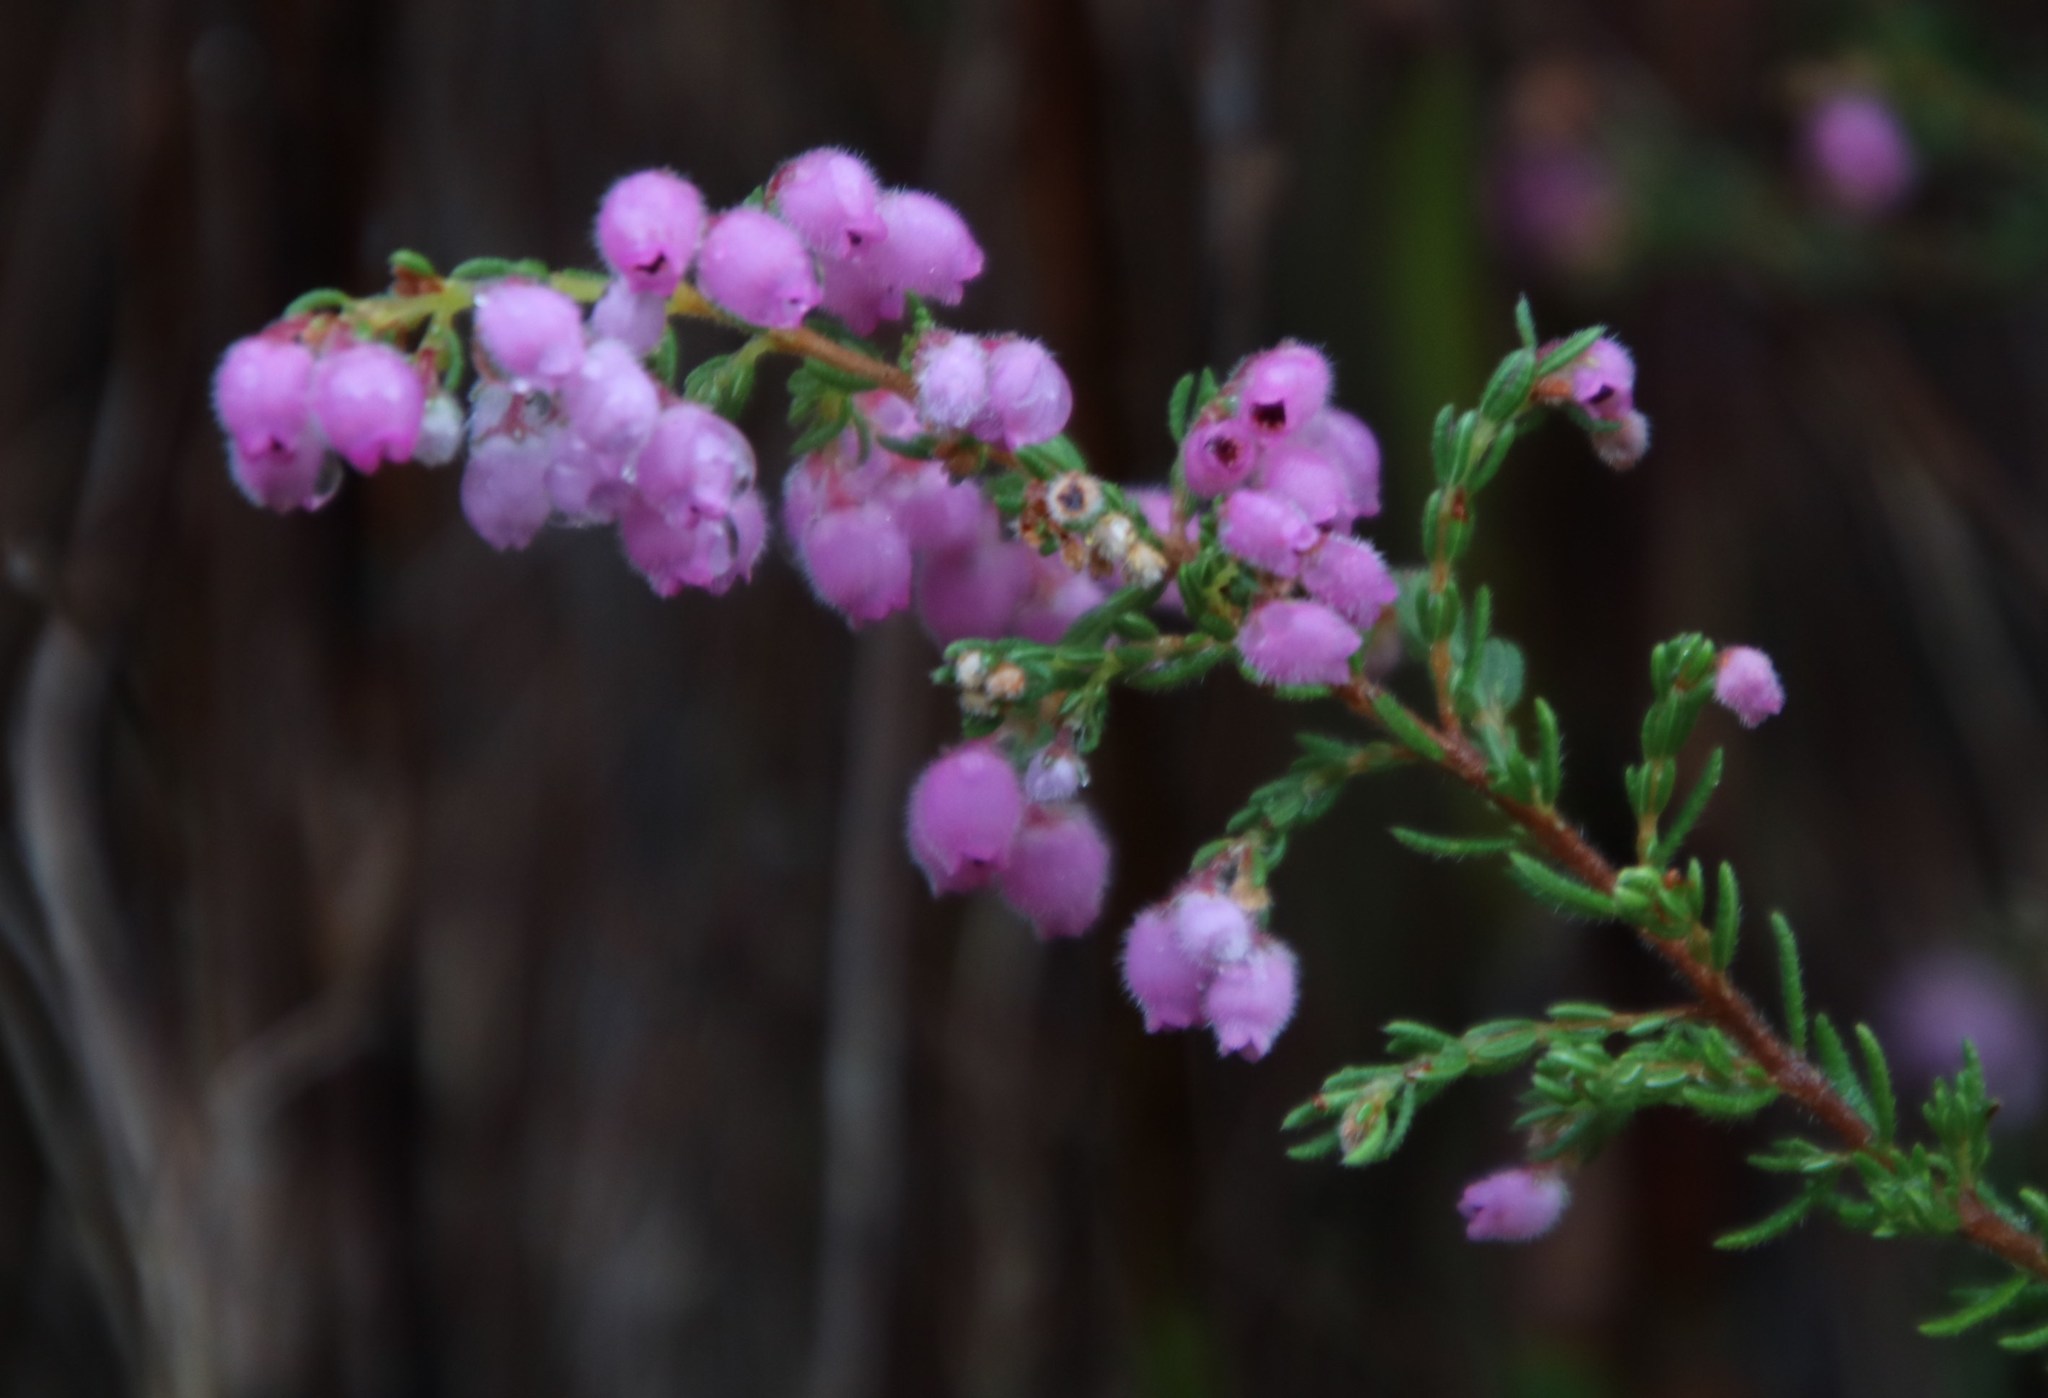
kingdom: Plantae
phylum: Tracheophyta
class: Magnoliopsida
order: Ericales
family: Ericaceae
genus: Erica
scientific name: Erica hirtiflora
